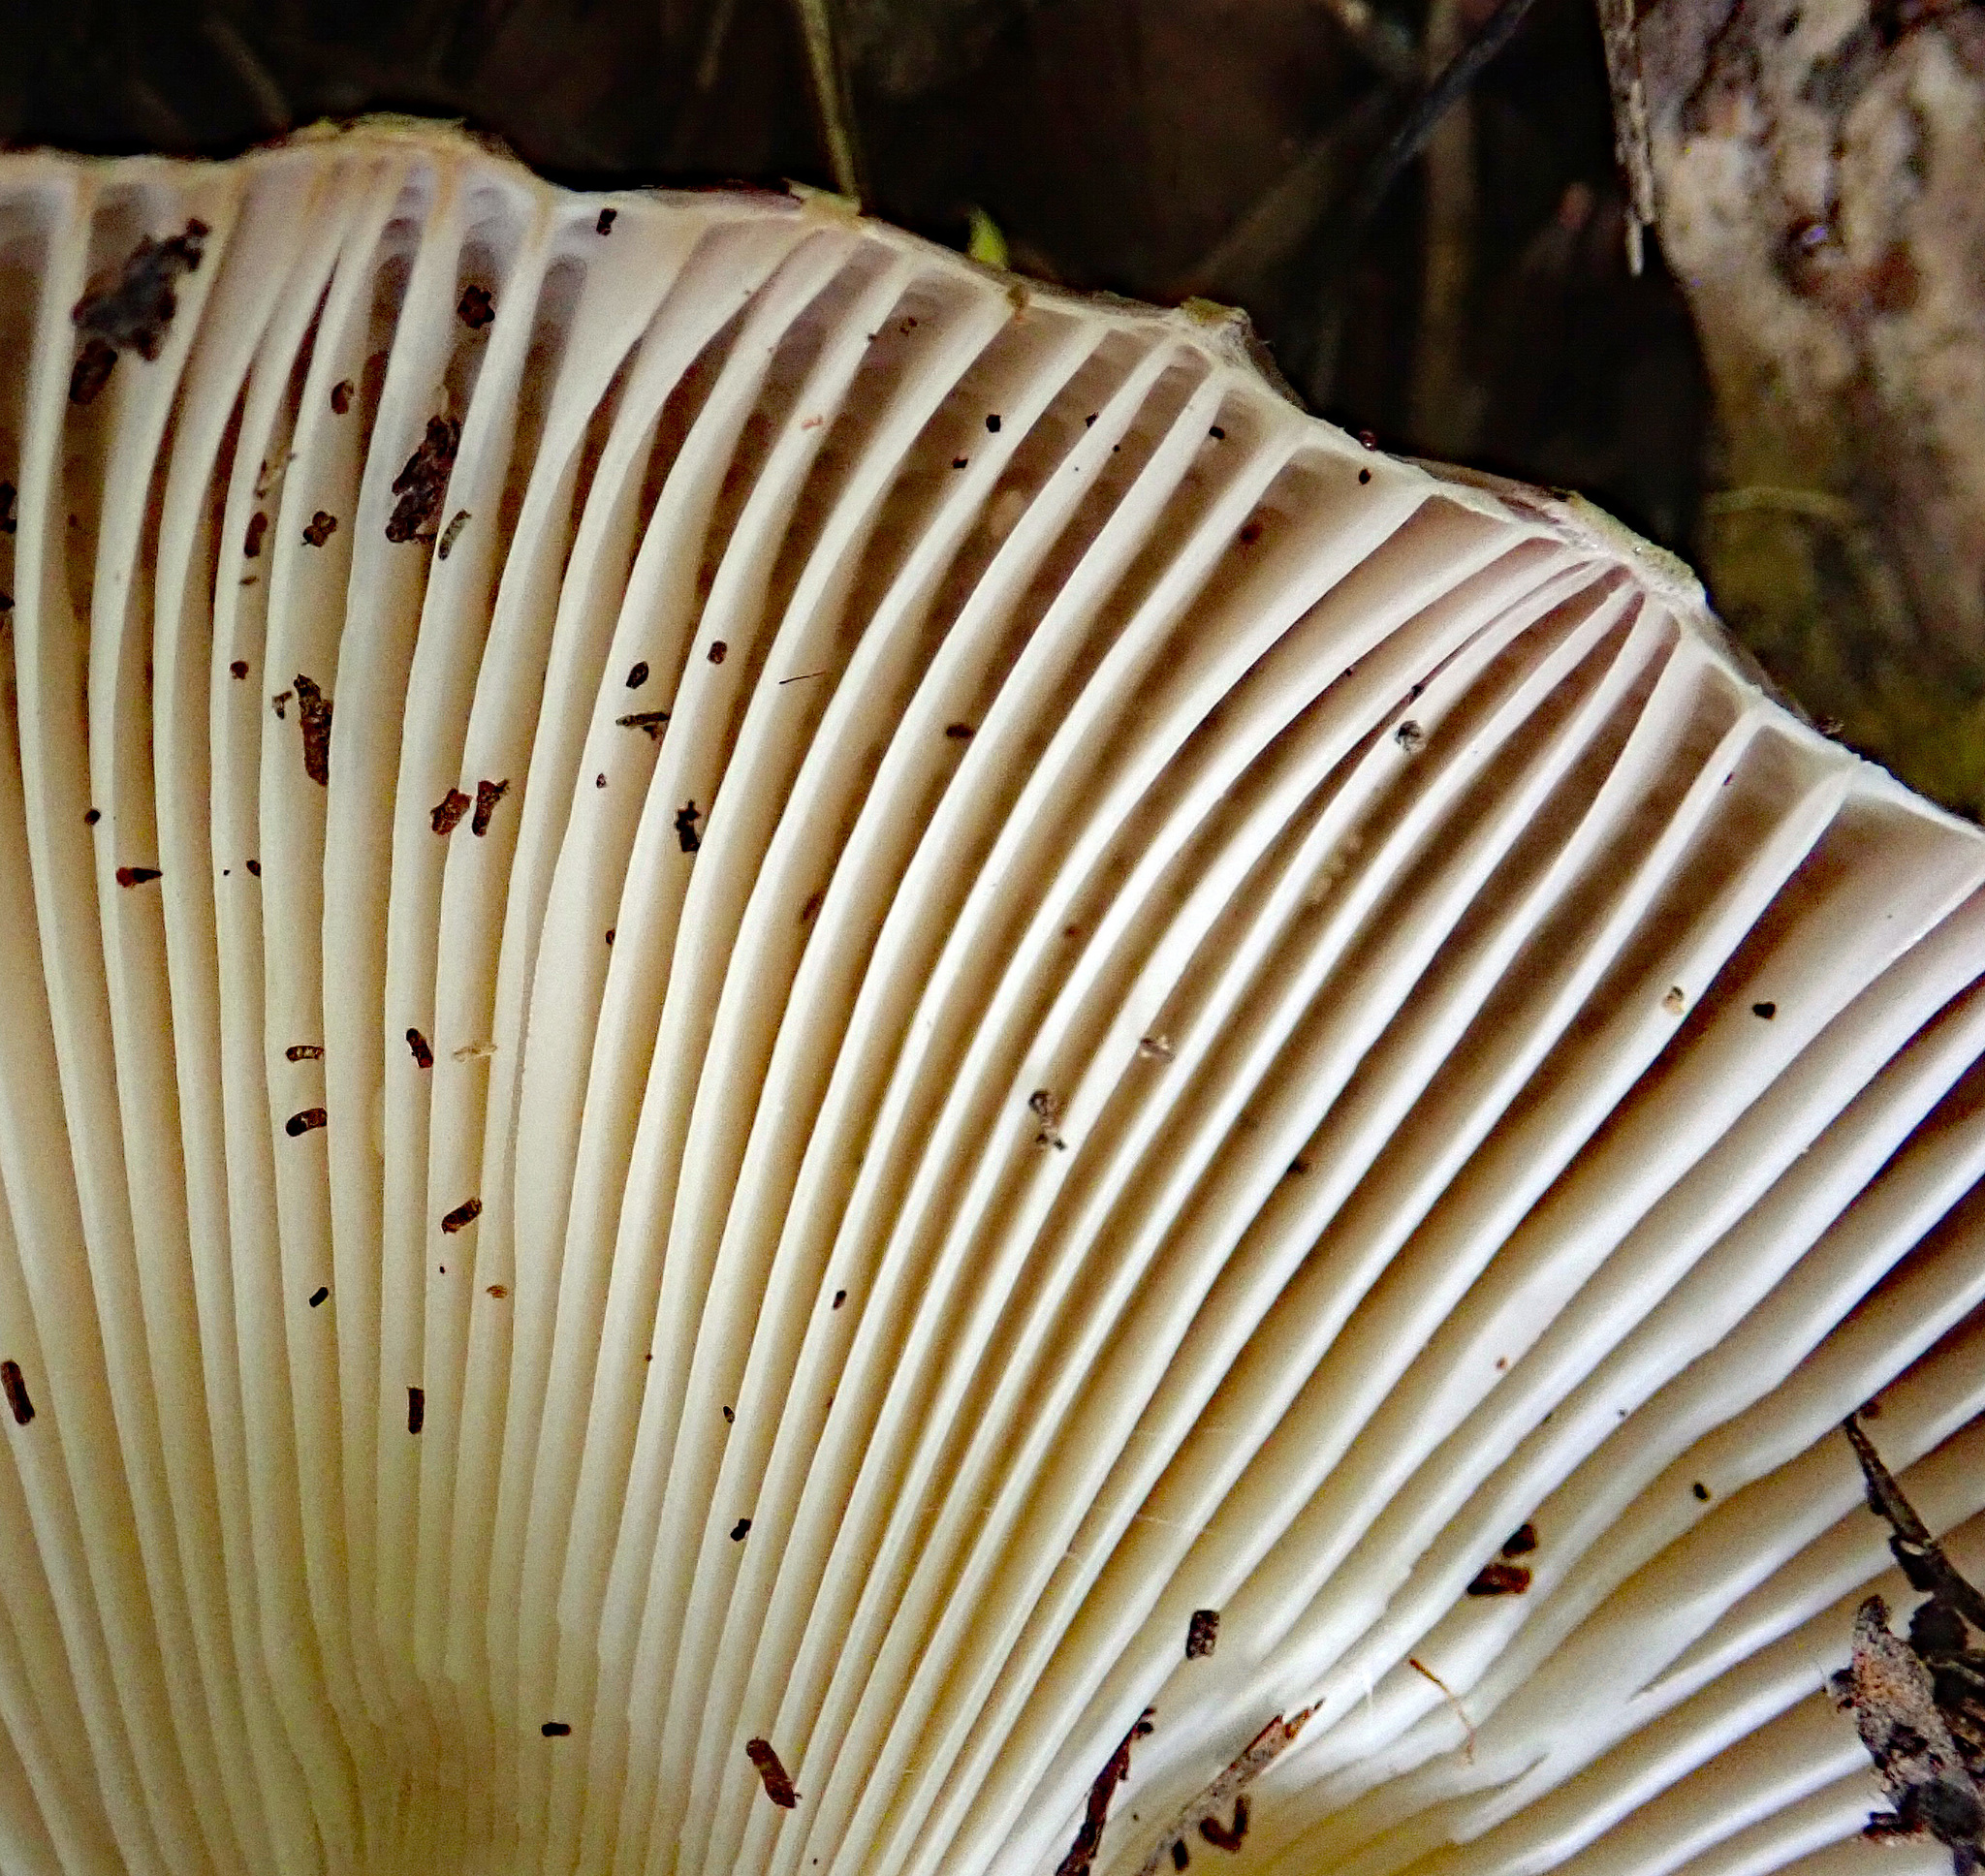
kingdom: Fungi
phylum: Basidiomycota
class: Agaricomycetes
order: Russulales
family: Russulaceae
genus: Russula
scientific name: Russula griseoviridis
